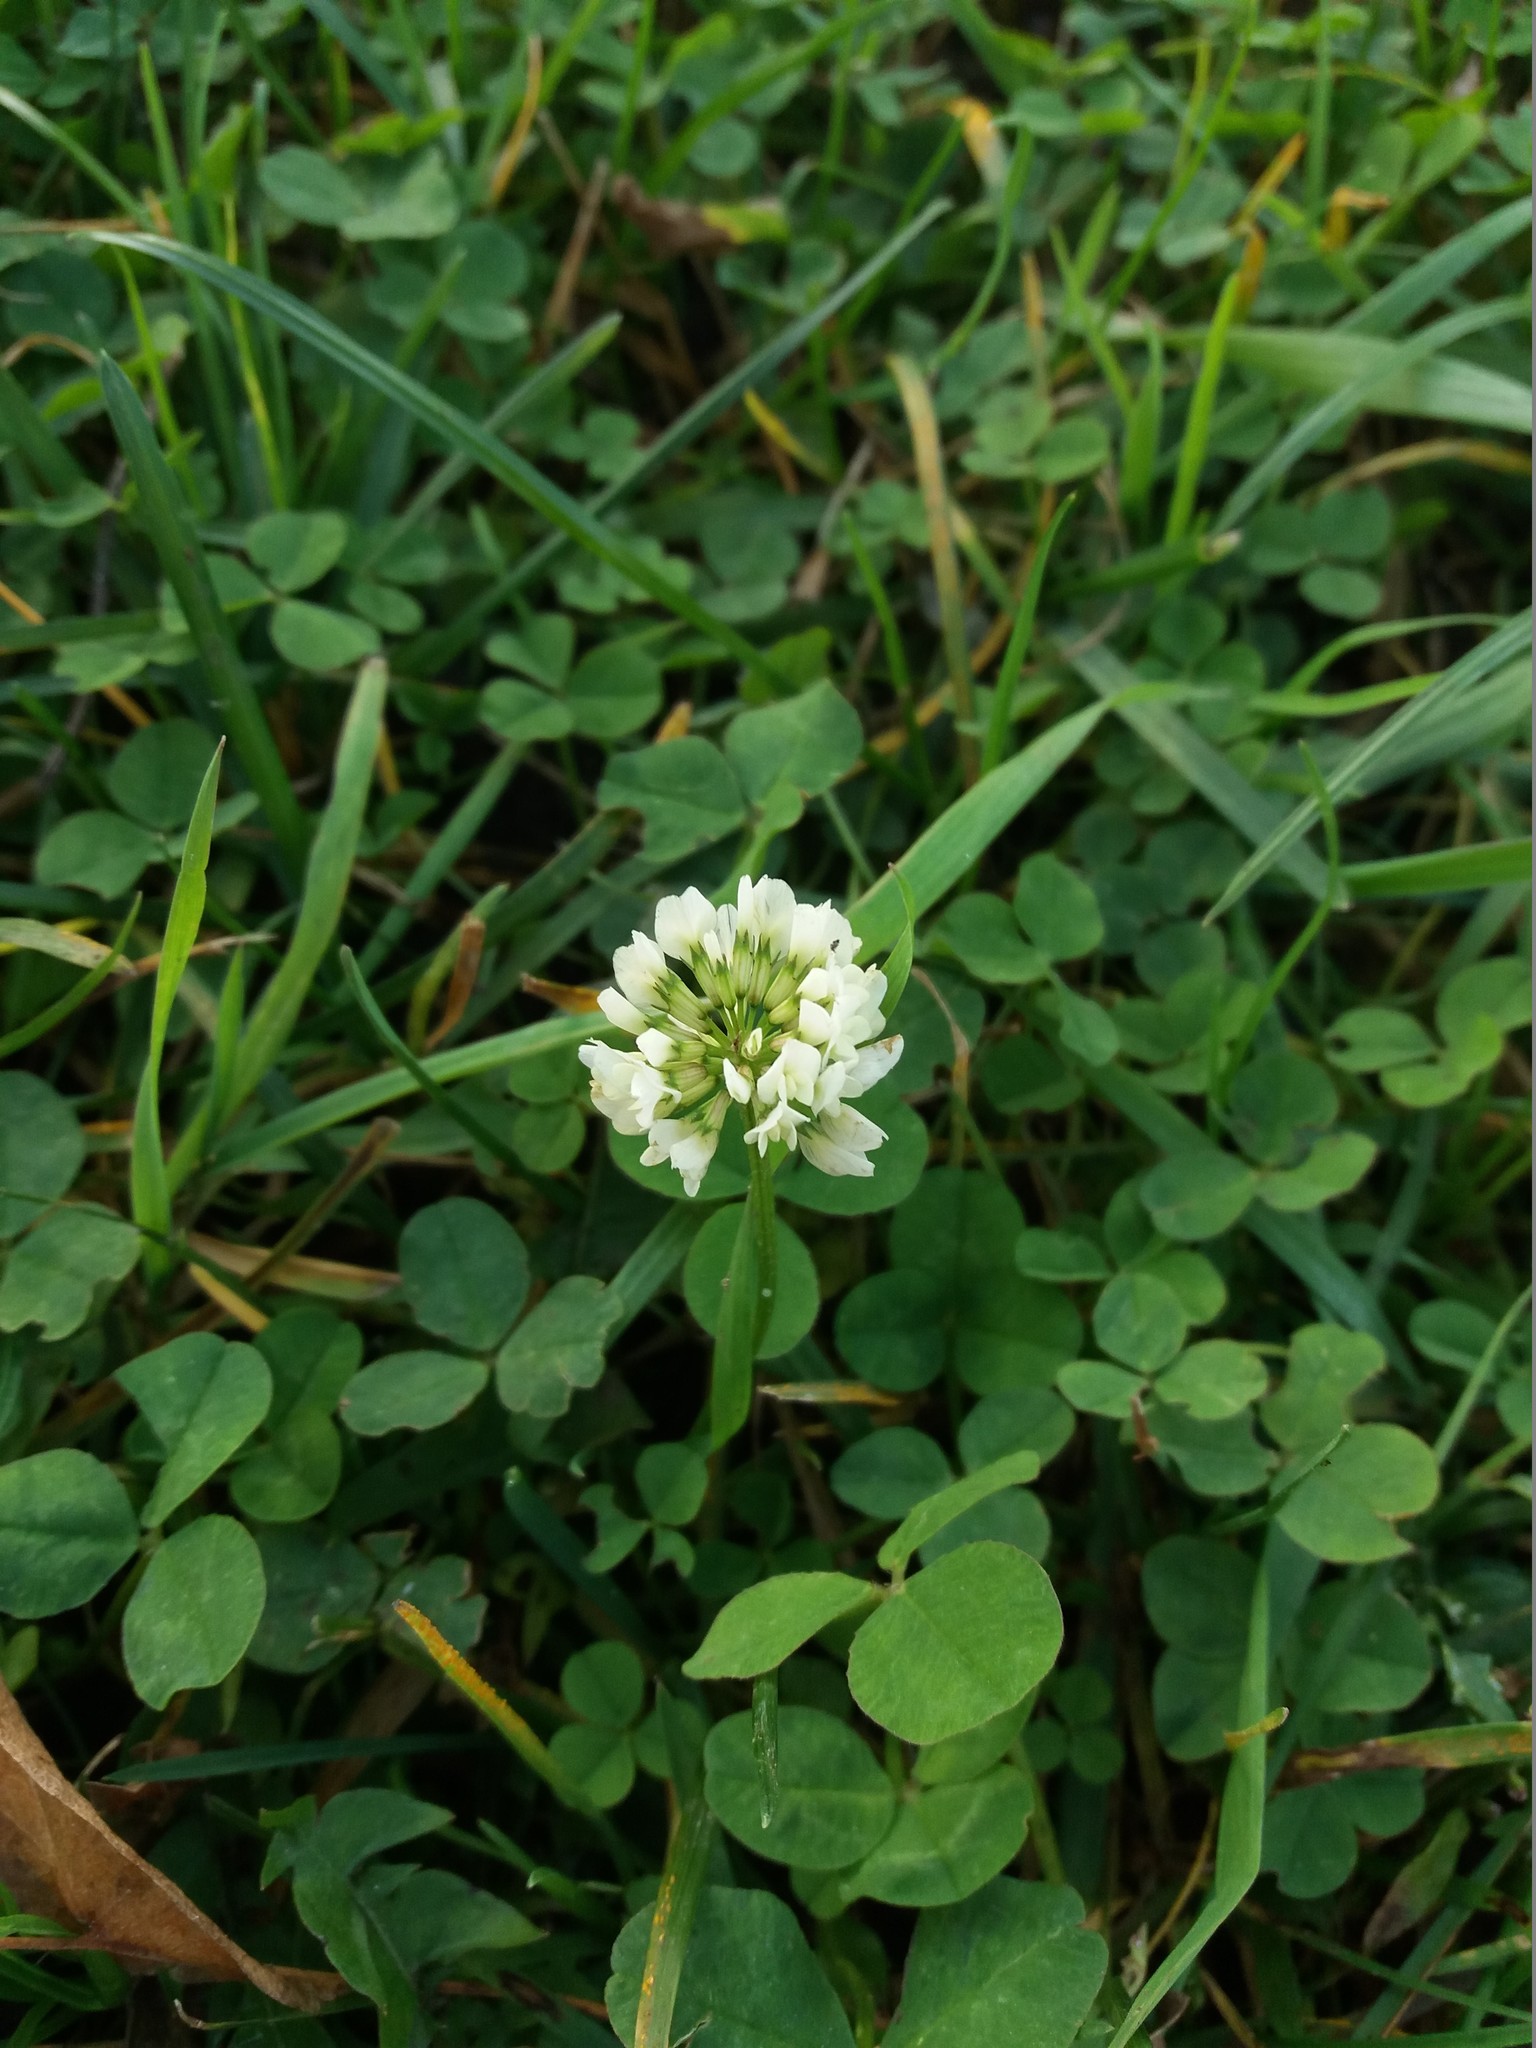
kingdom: Plantae
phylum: Tracheophyta
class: Magnoliopsida
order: Fabales
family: Fabaceae
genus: Trifolium
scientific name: Trifolium repens
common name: White clover
